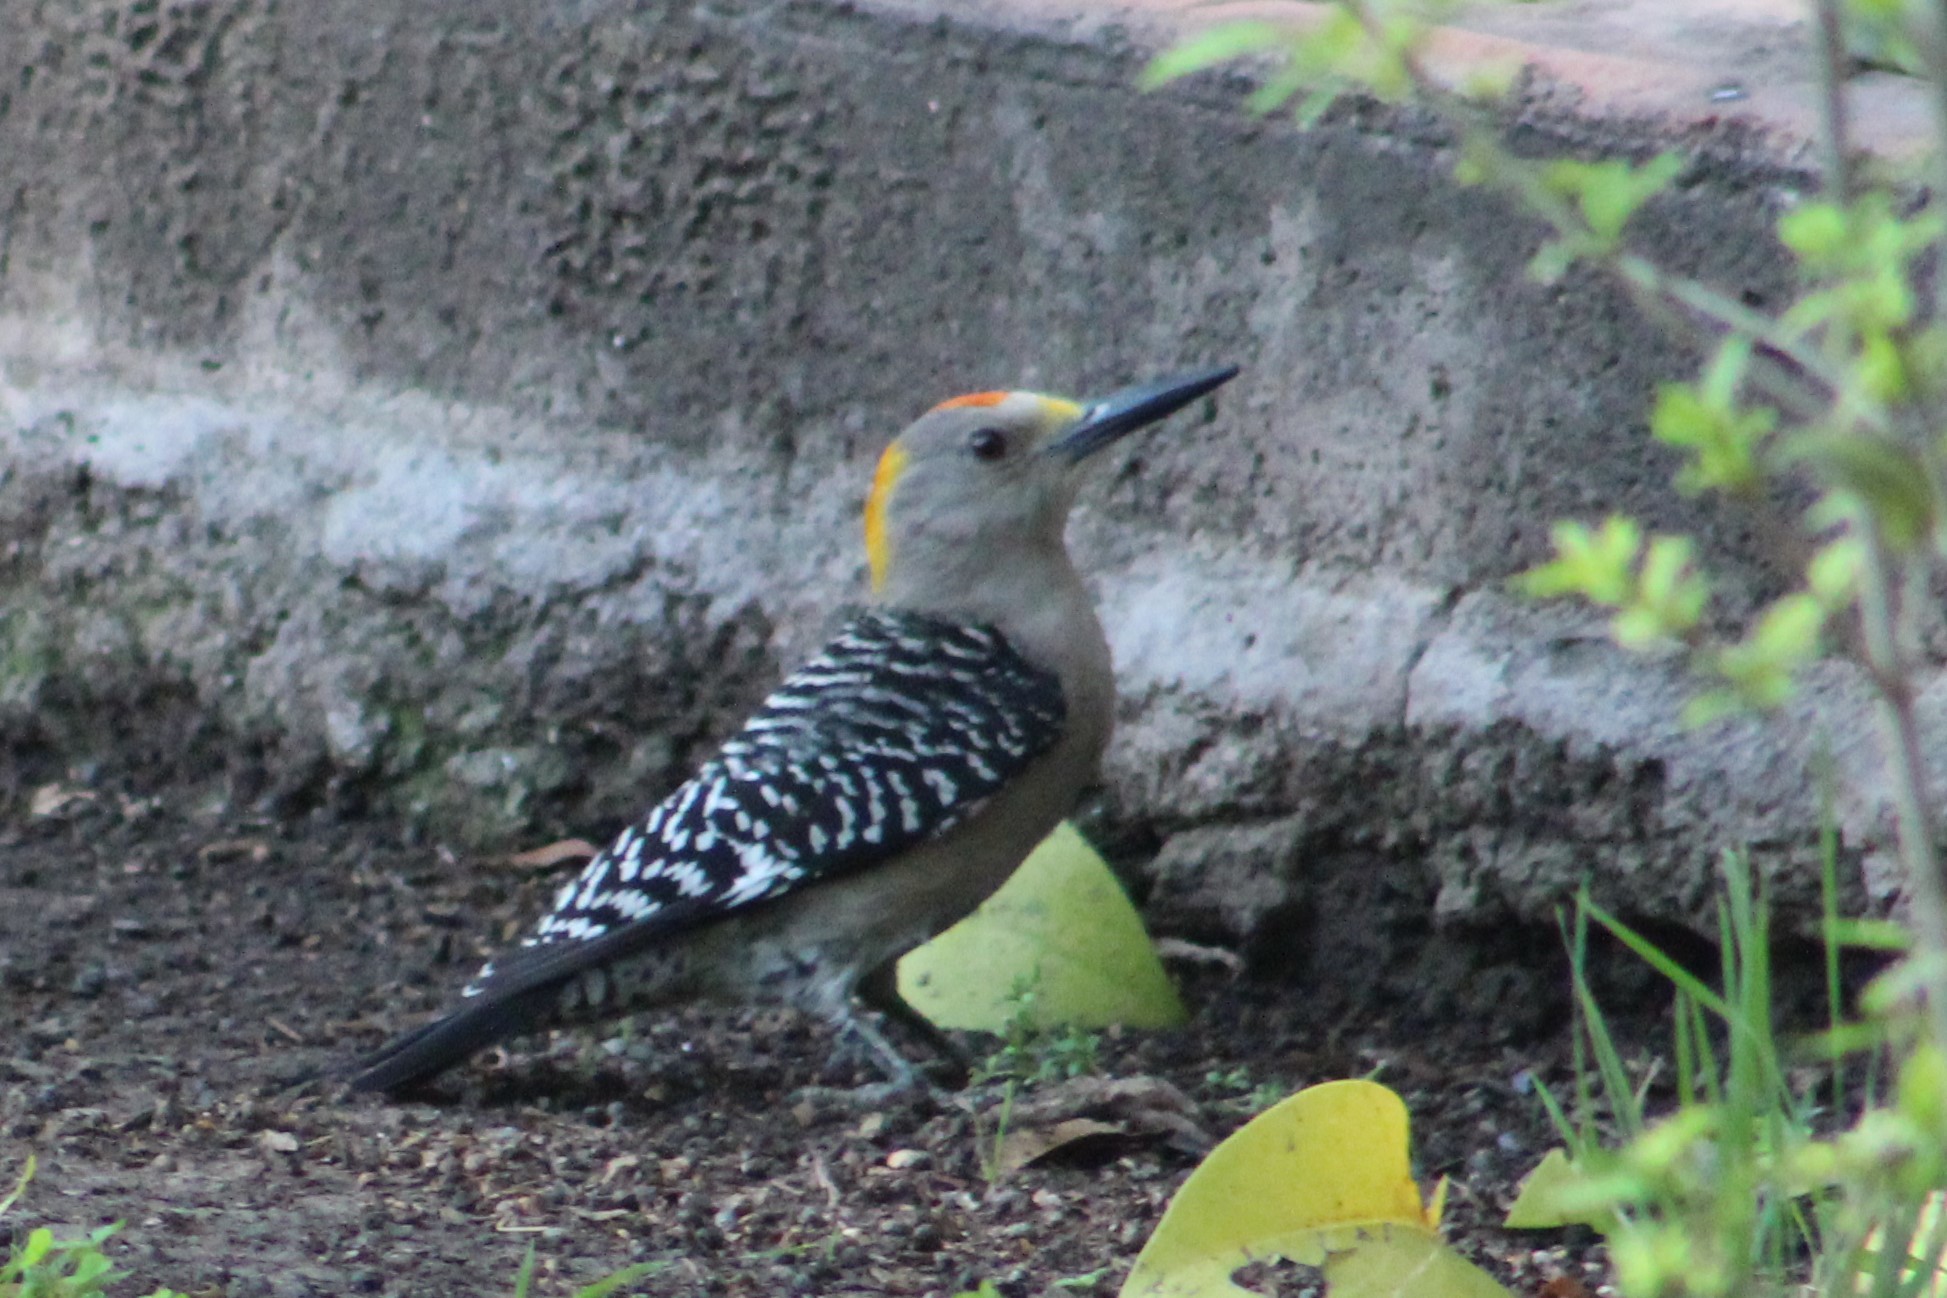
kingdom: Animalia
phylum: Chordata
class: Aves
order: Piciformes
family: Picidae
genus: Melanerpes
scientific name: Melanerpes aurifrons
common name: Golden-fronted woodpecker
